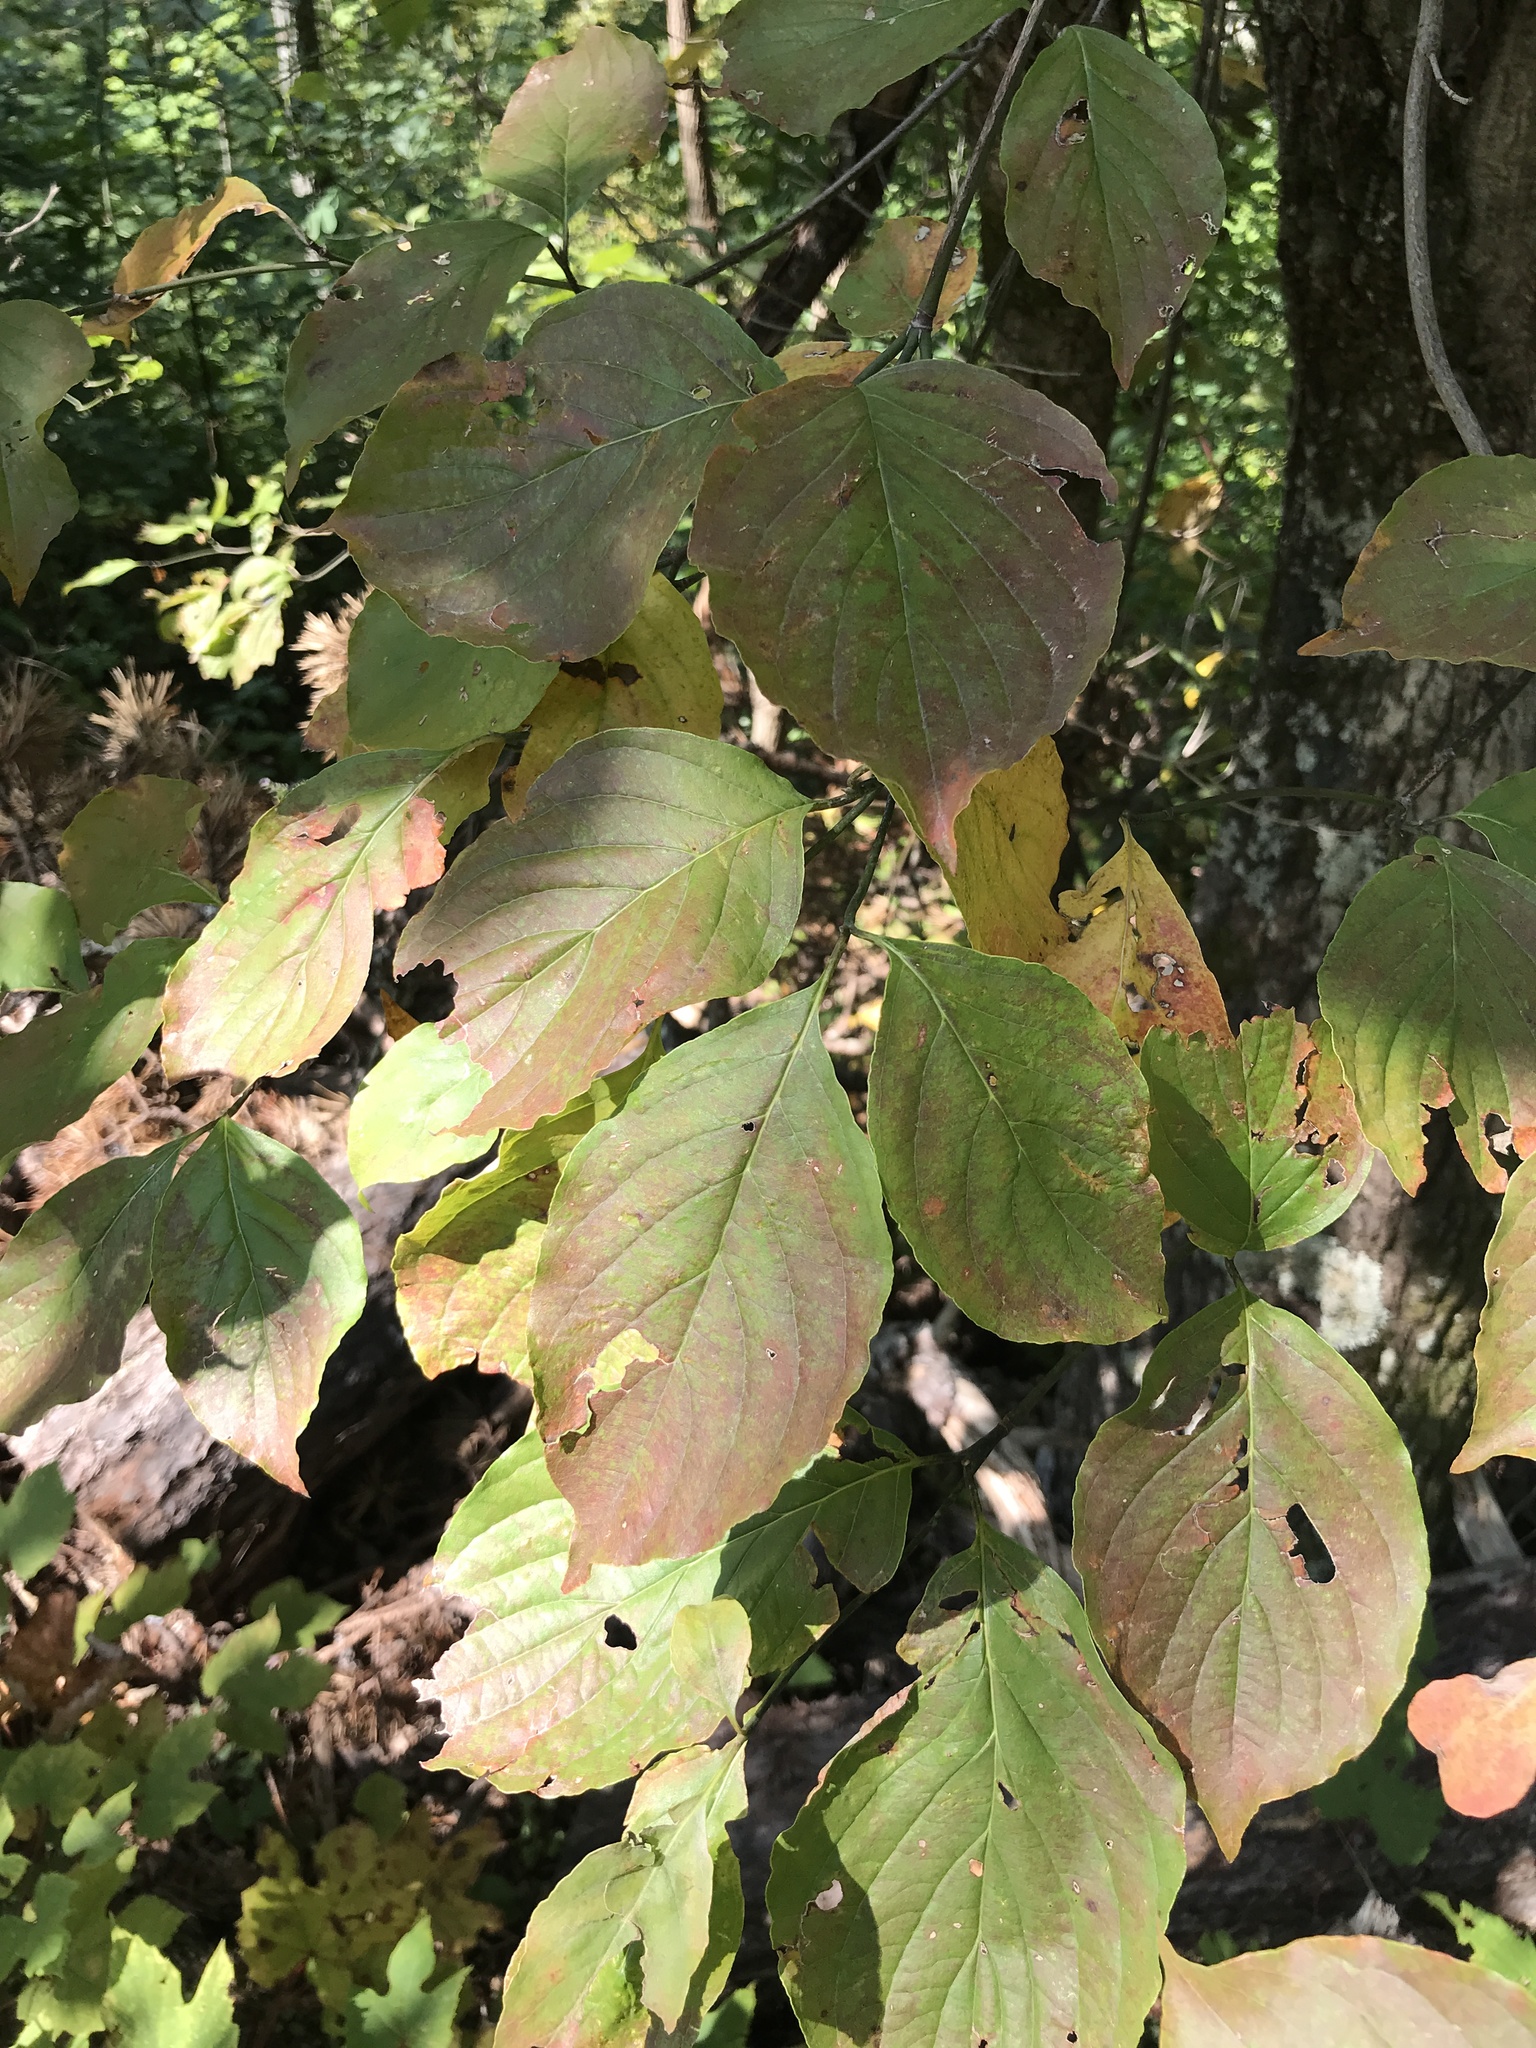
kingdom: Plantae
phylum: Tracheophyta
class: Magnoliopsida
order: Cornales
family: Cornaceae
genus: Cornus
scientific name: Cornus florida
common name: Flowering dogwood
